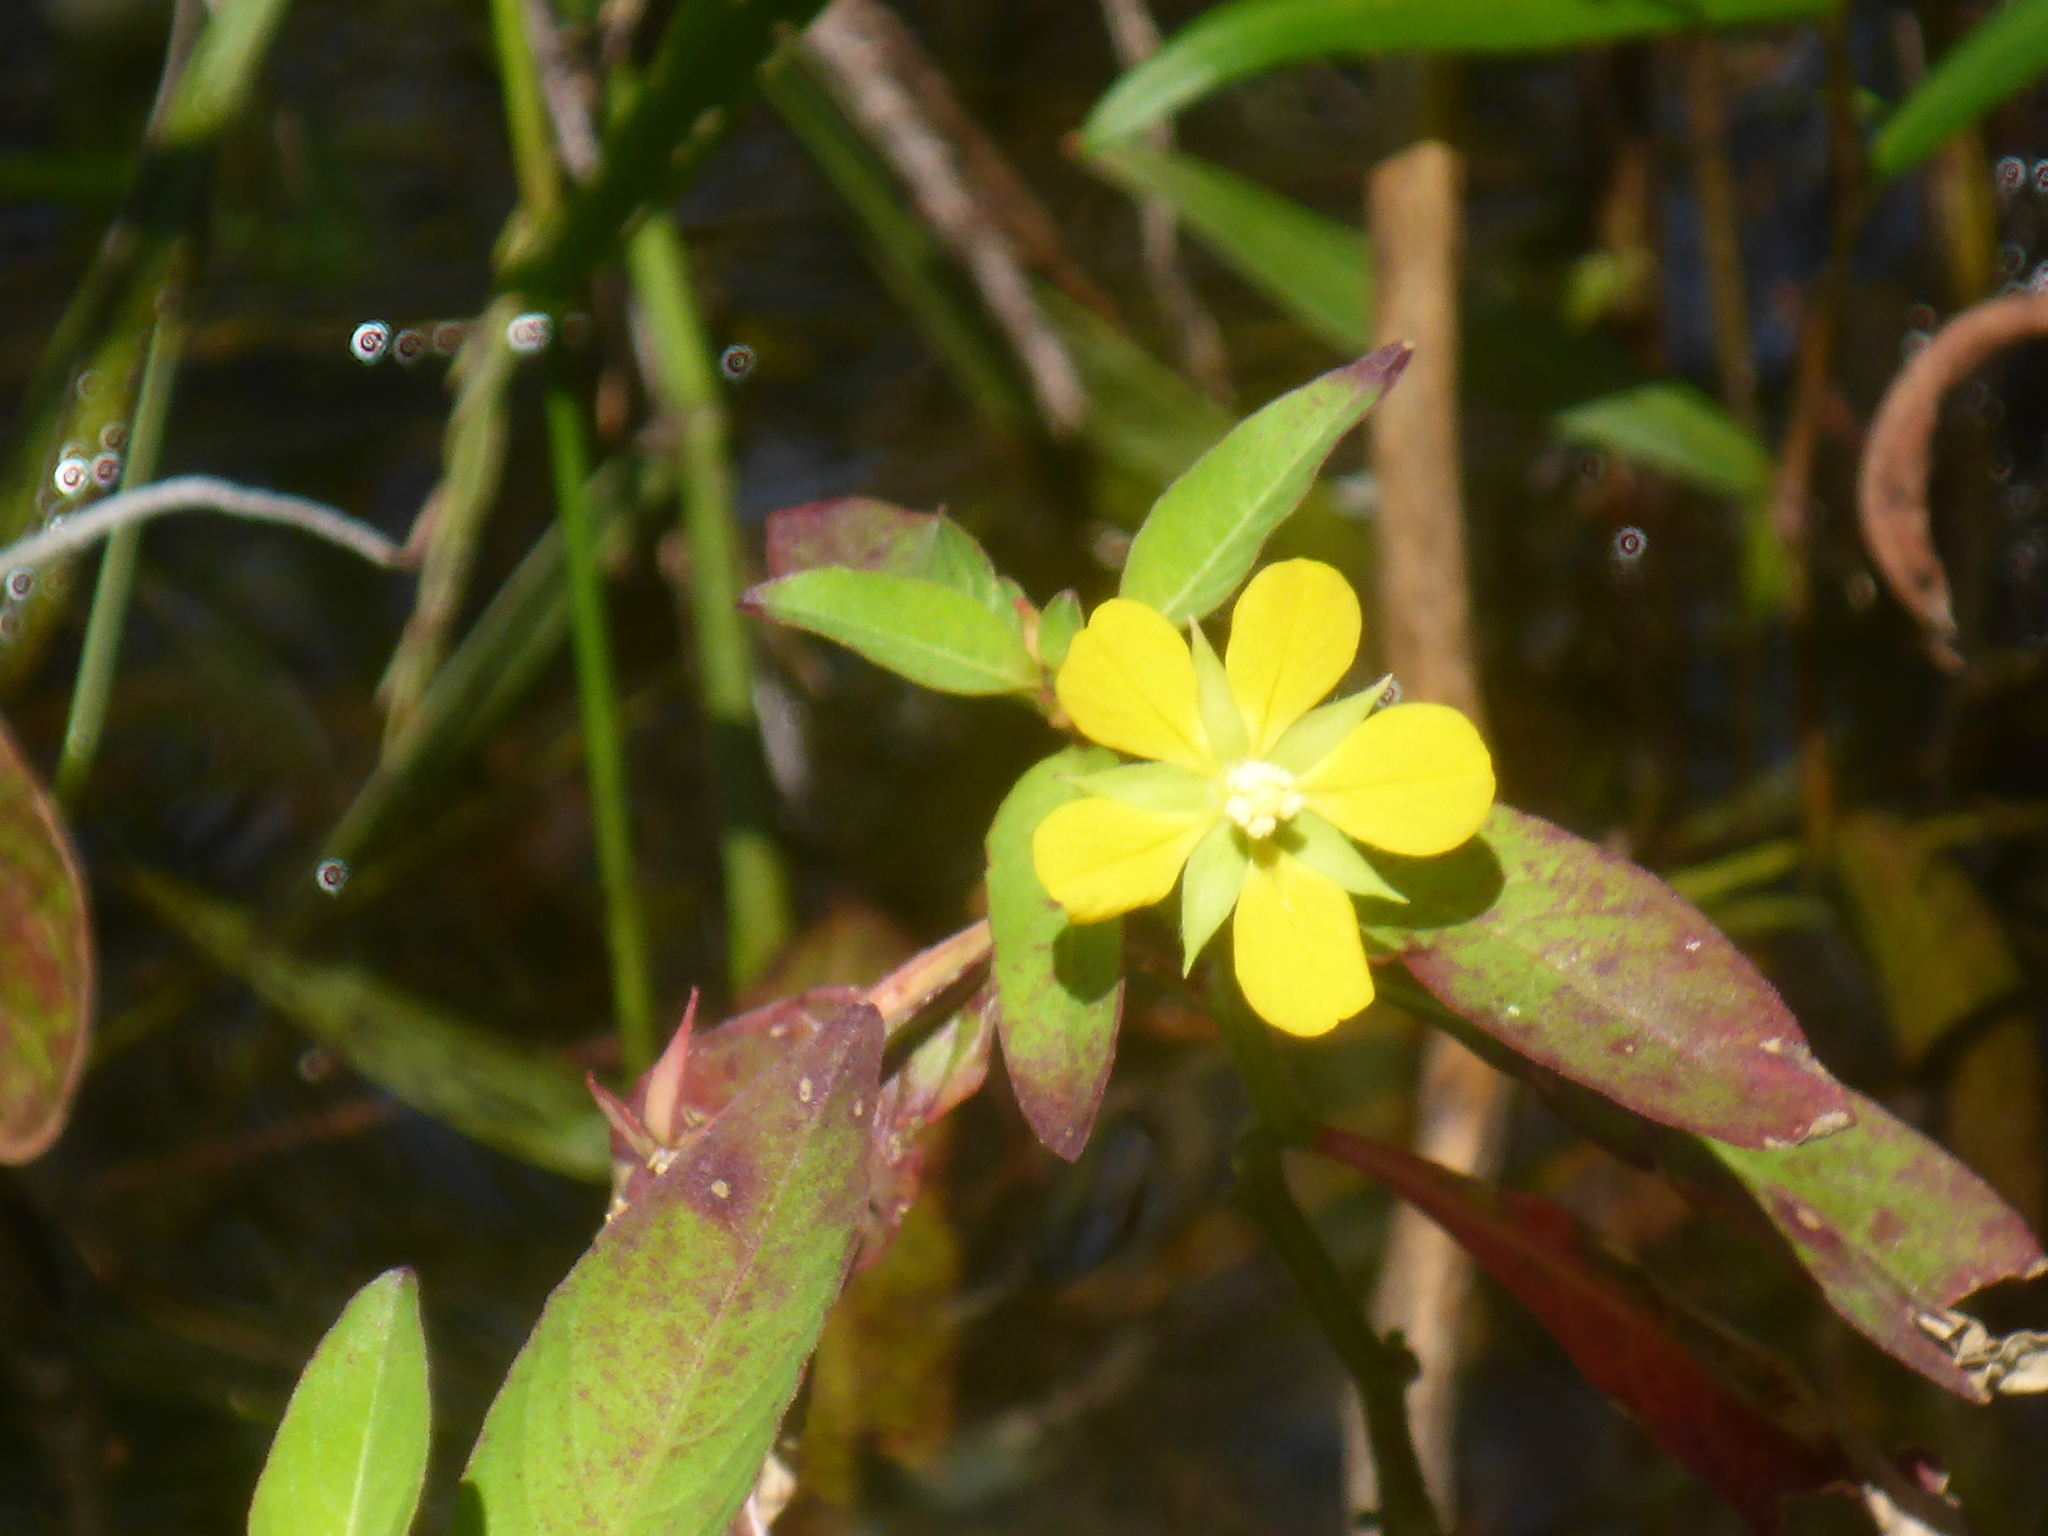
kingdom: Plantae
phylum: Tracheophyta
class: Magnoliopsida
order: Myrtales
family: Onagraceae
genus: Ludwigia
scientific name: Ludwigia leptocarpa
